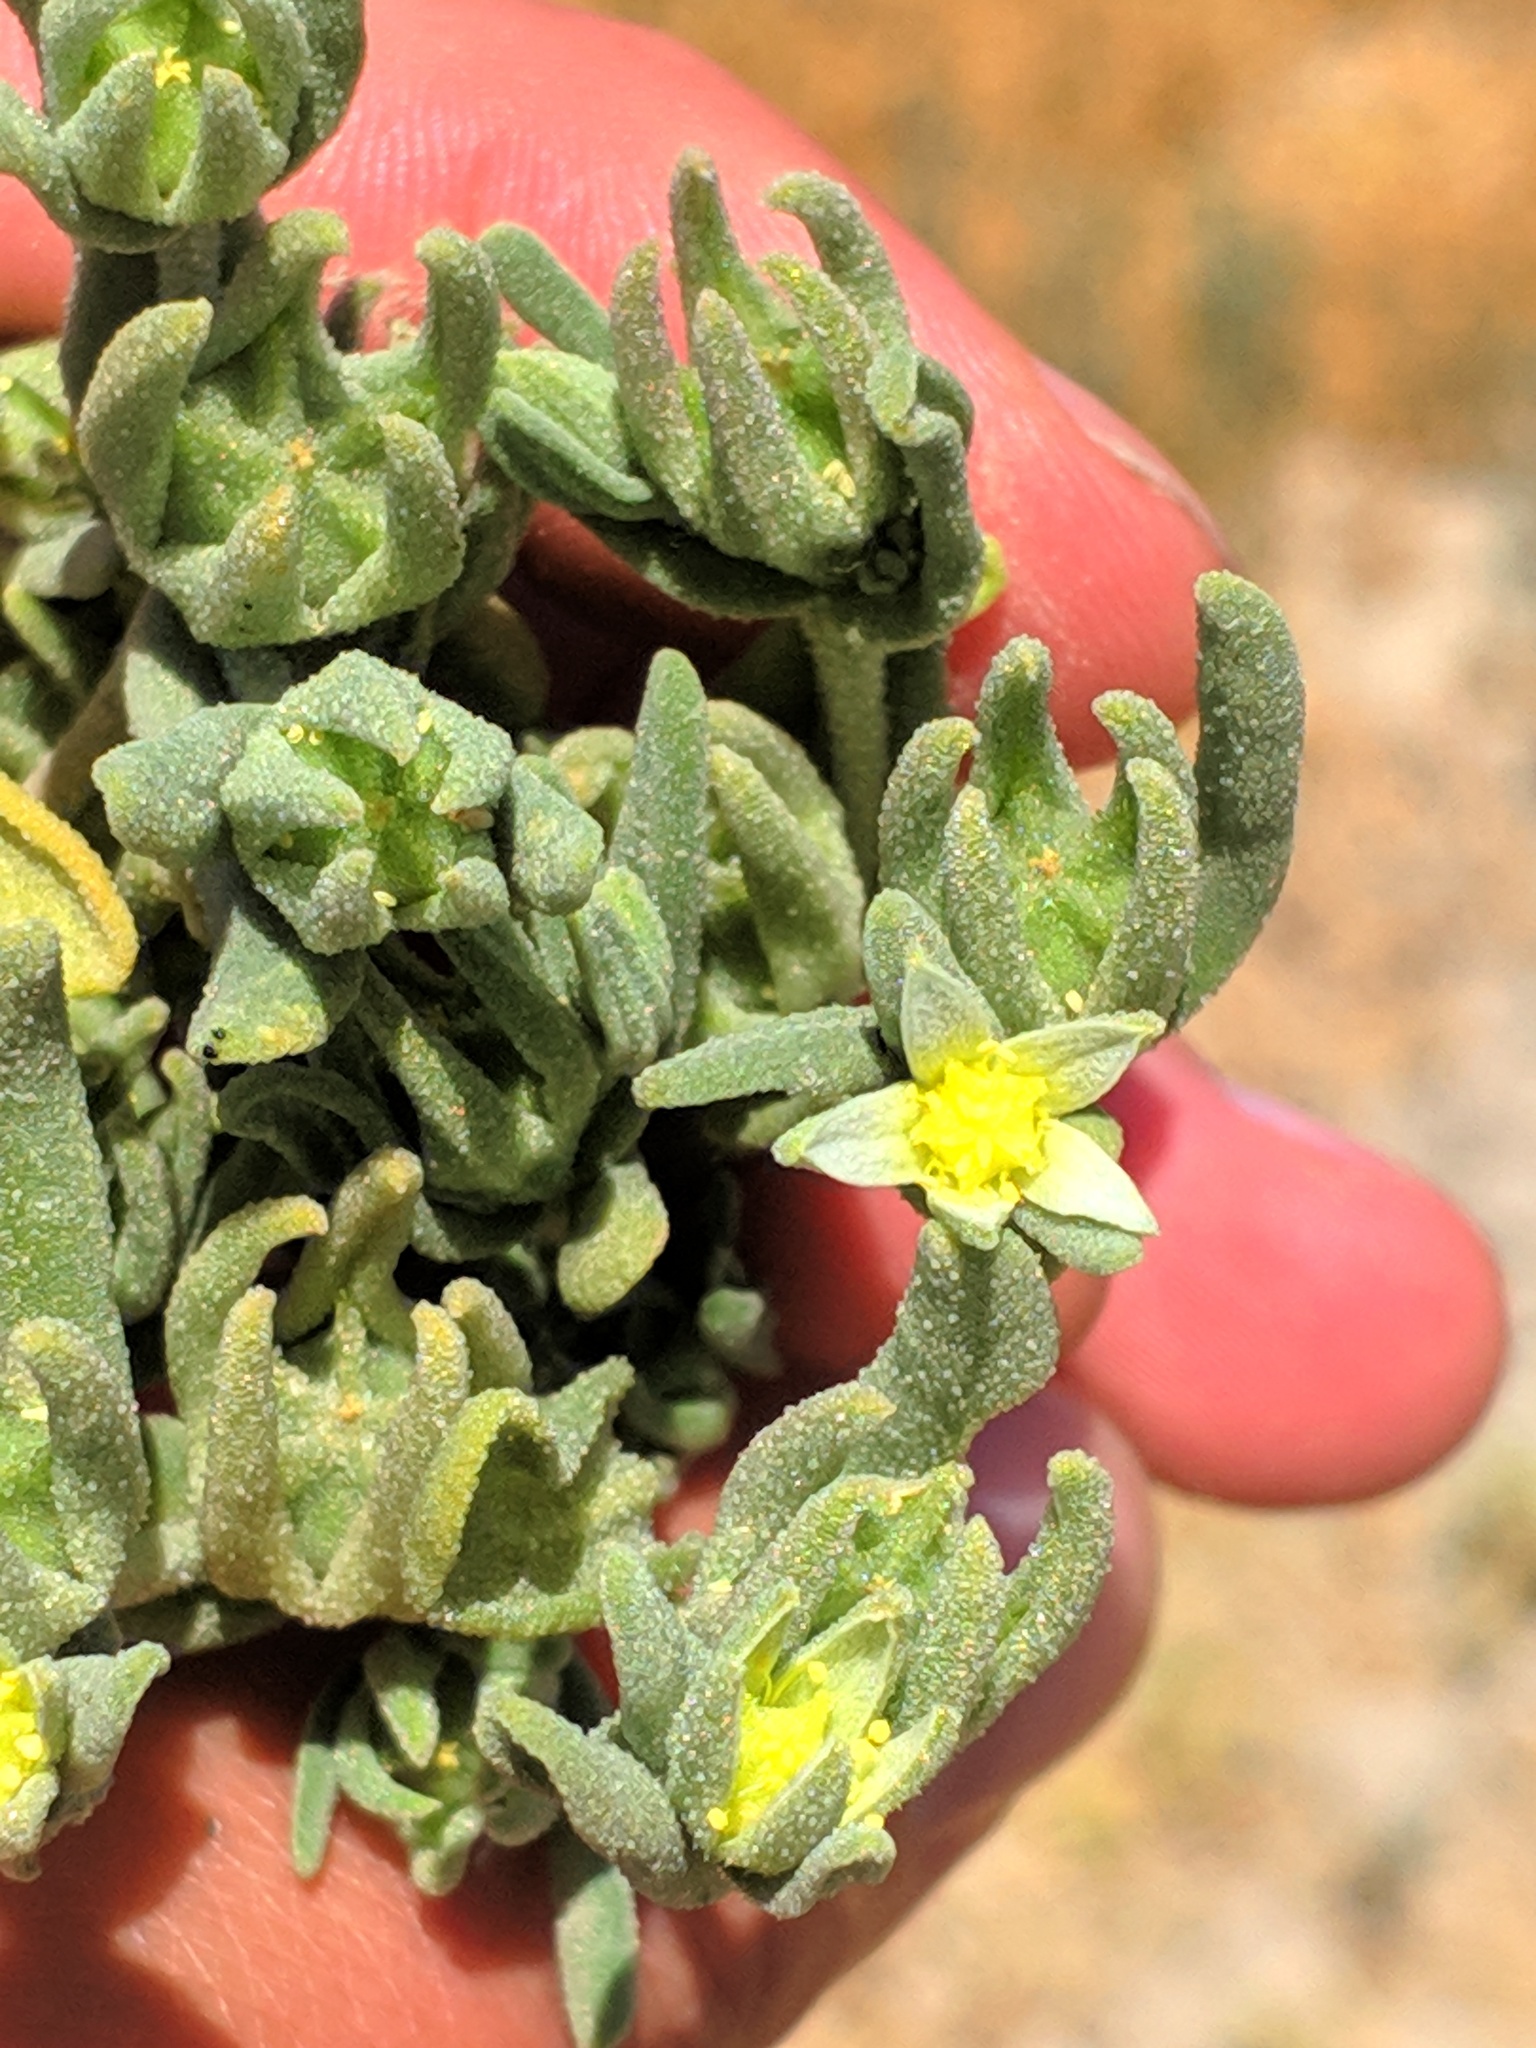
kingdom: Plantae
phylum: Tracheophyta
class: Magnoliopsida
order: Caryophyllales
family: Aizoaceae
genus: Aizoanthemopsis
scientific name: Aizoanthemopsis hispanica
